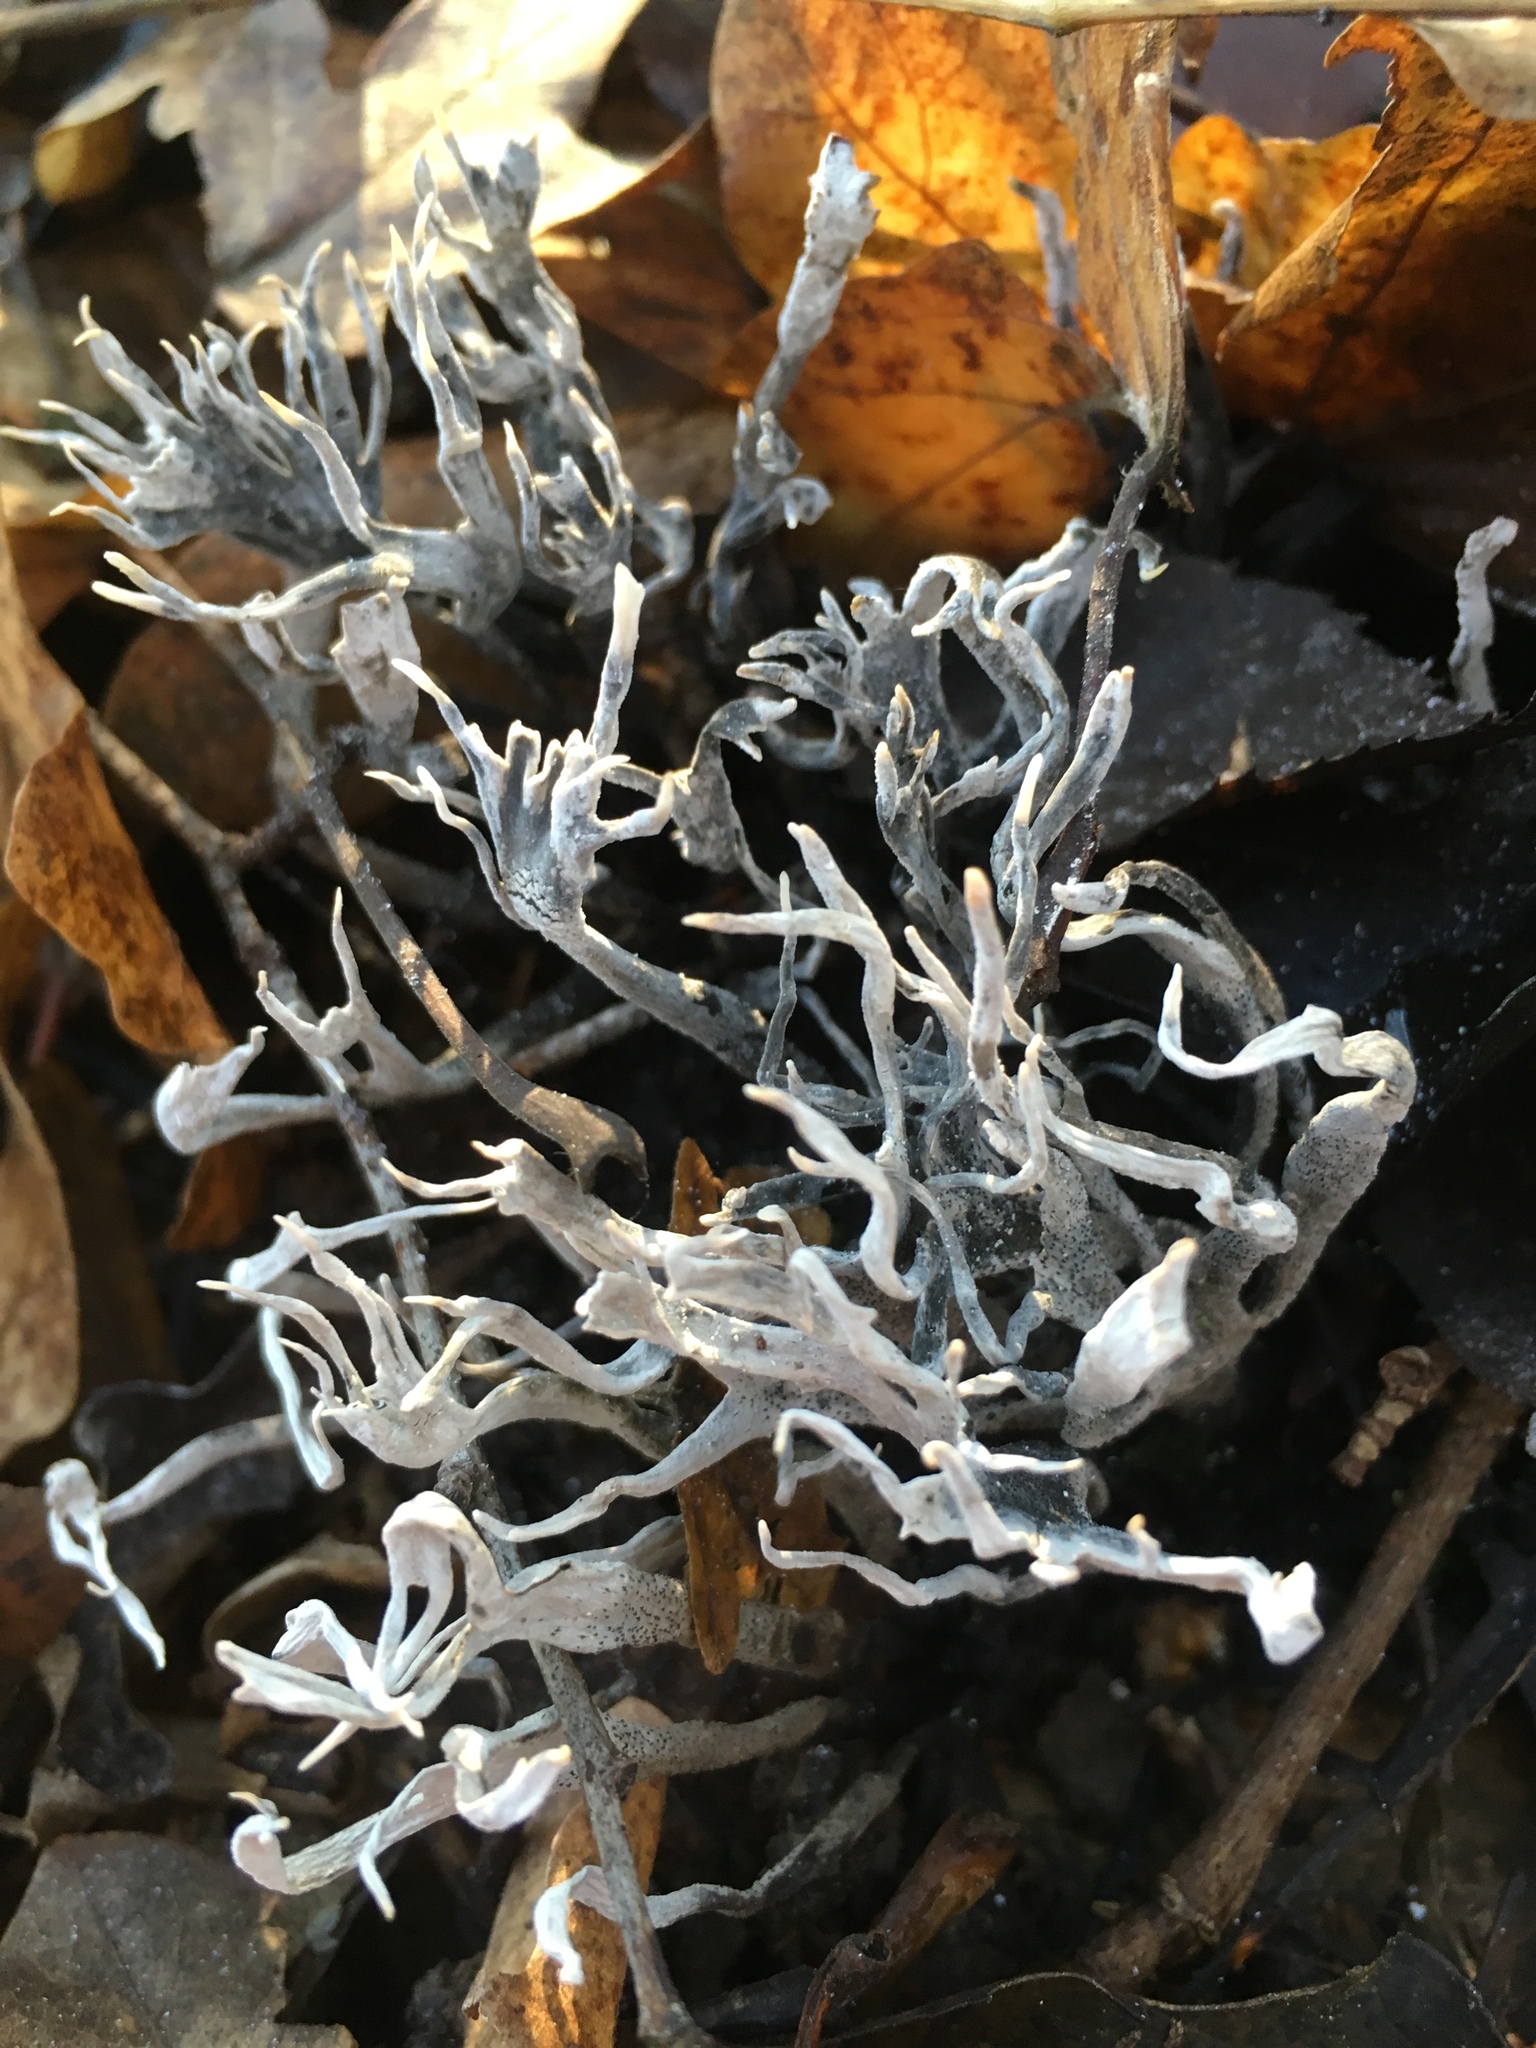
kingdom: Fungi
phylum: Ascomycota
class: Sordariomycetes
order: Xylariales
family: Xylariaceae
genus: Xylaria
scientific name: Xylaria hypoxylon
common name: Candle-snuff fungus
